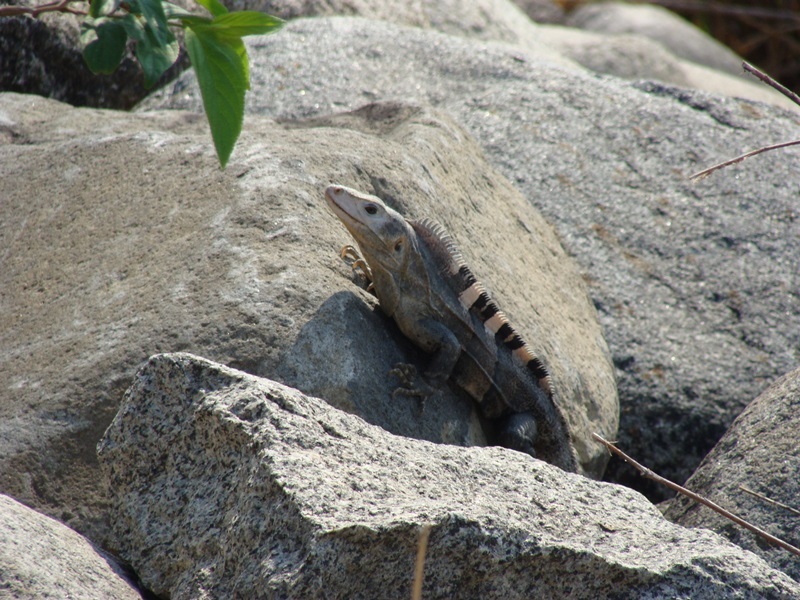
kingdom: Animalia
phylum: Chordata
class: Squamata
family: Iguanidae
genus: Ctenosaura
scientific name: Ctenosaura similis
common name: Black spiny-tailed iguana
